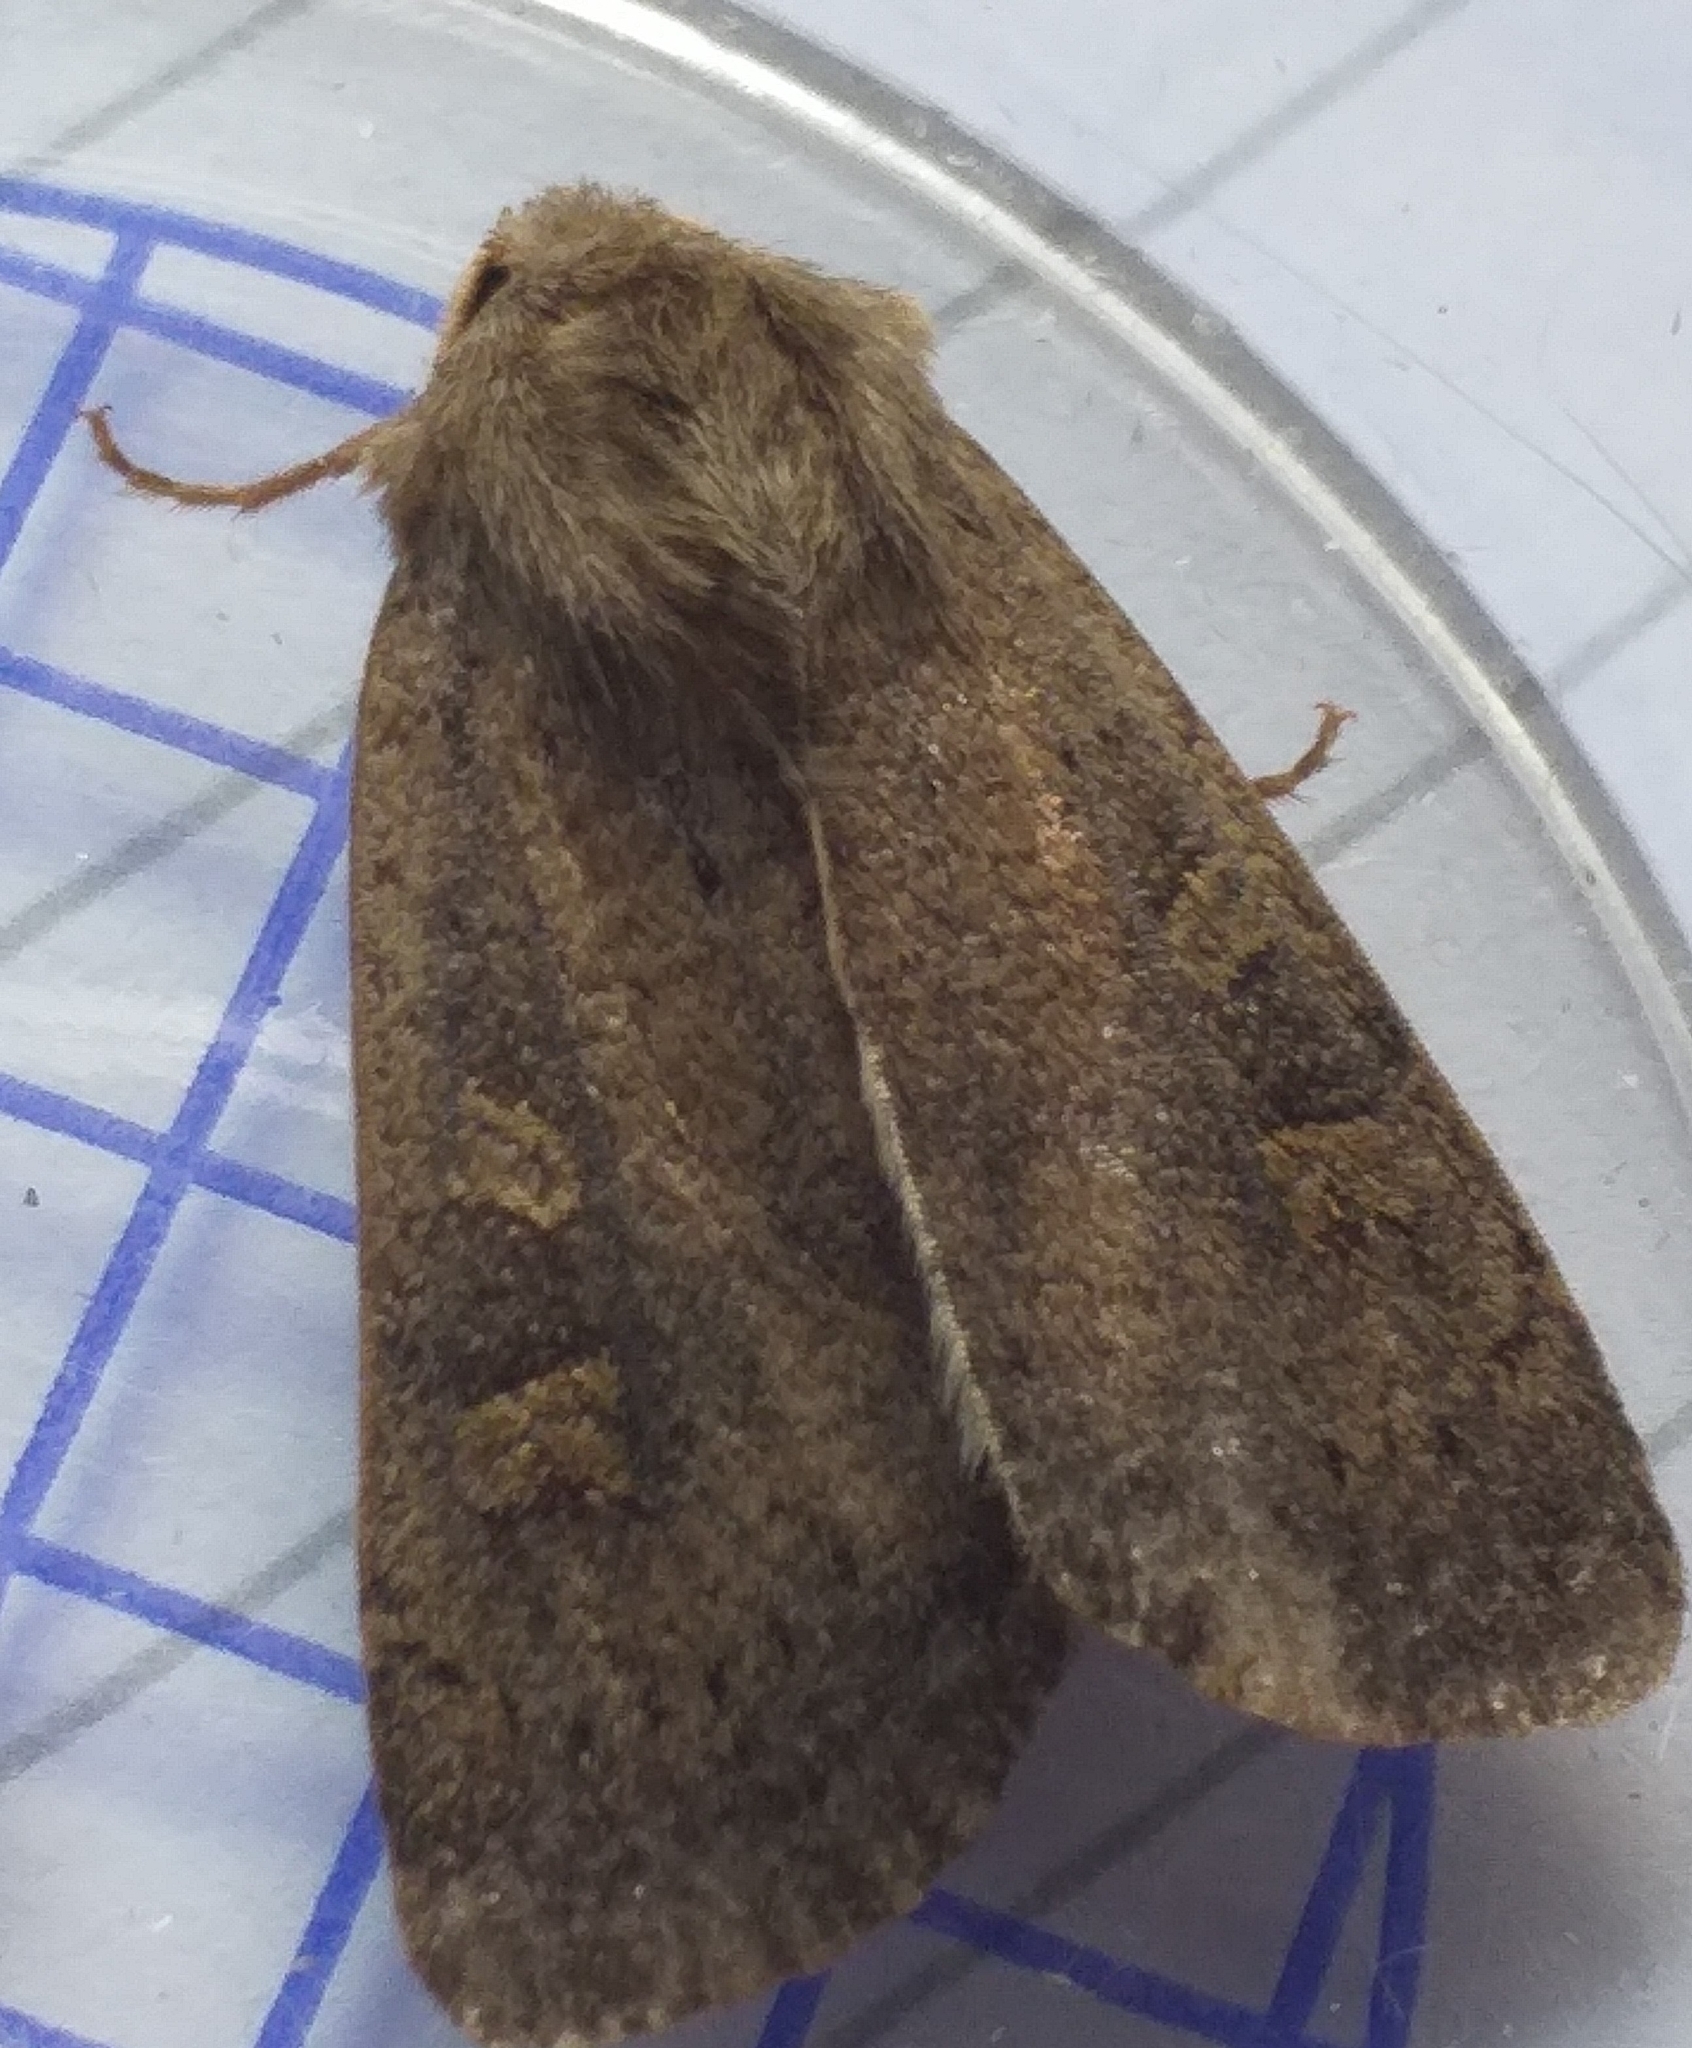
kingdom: Animalia
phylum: Arthropoda
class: Insecta
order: Lepidoptera
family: Noctuidae
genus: Xestia
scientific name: Xestia xanthographa
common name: Square-spot rustic
